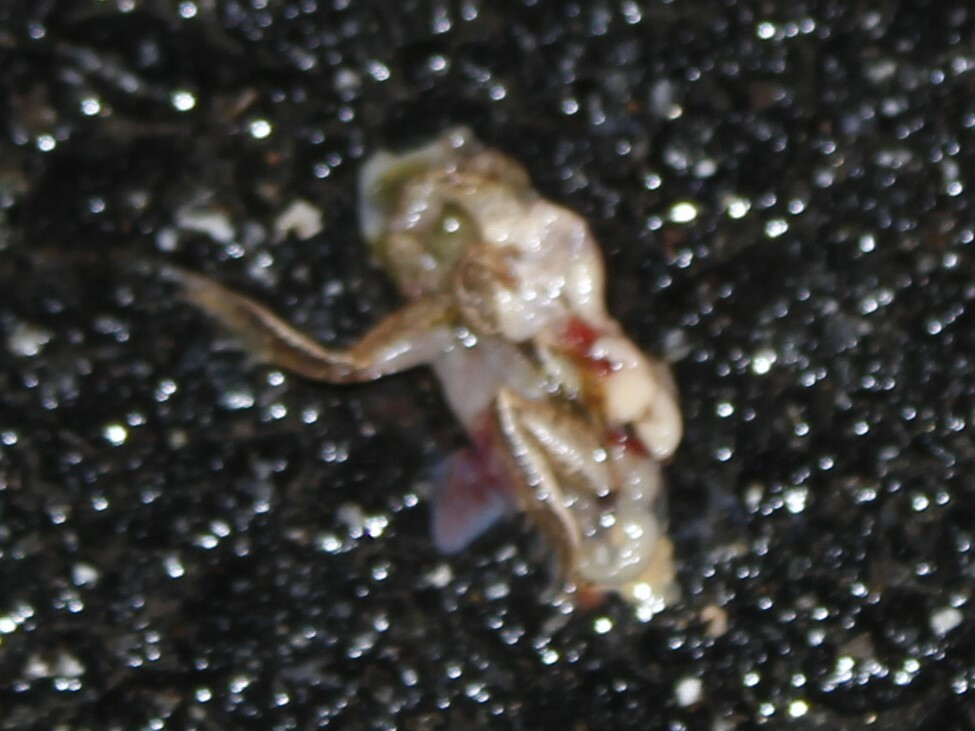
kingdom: Animalia
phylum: Chordata
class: Amphibia
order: Anura
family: Hylidae
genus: Pseudacris
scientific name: Pseudacris crucifer
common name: Spring peeper
